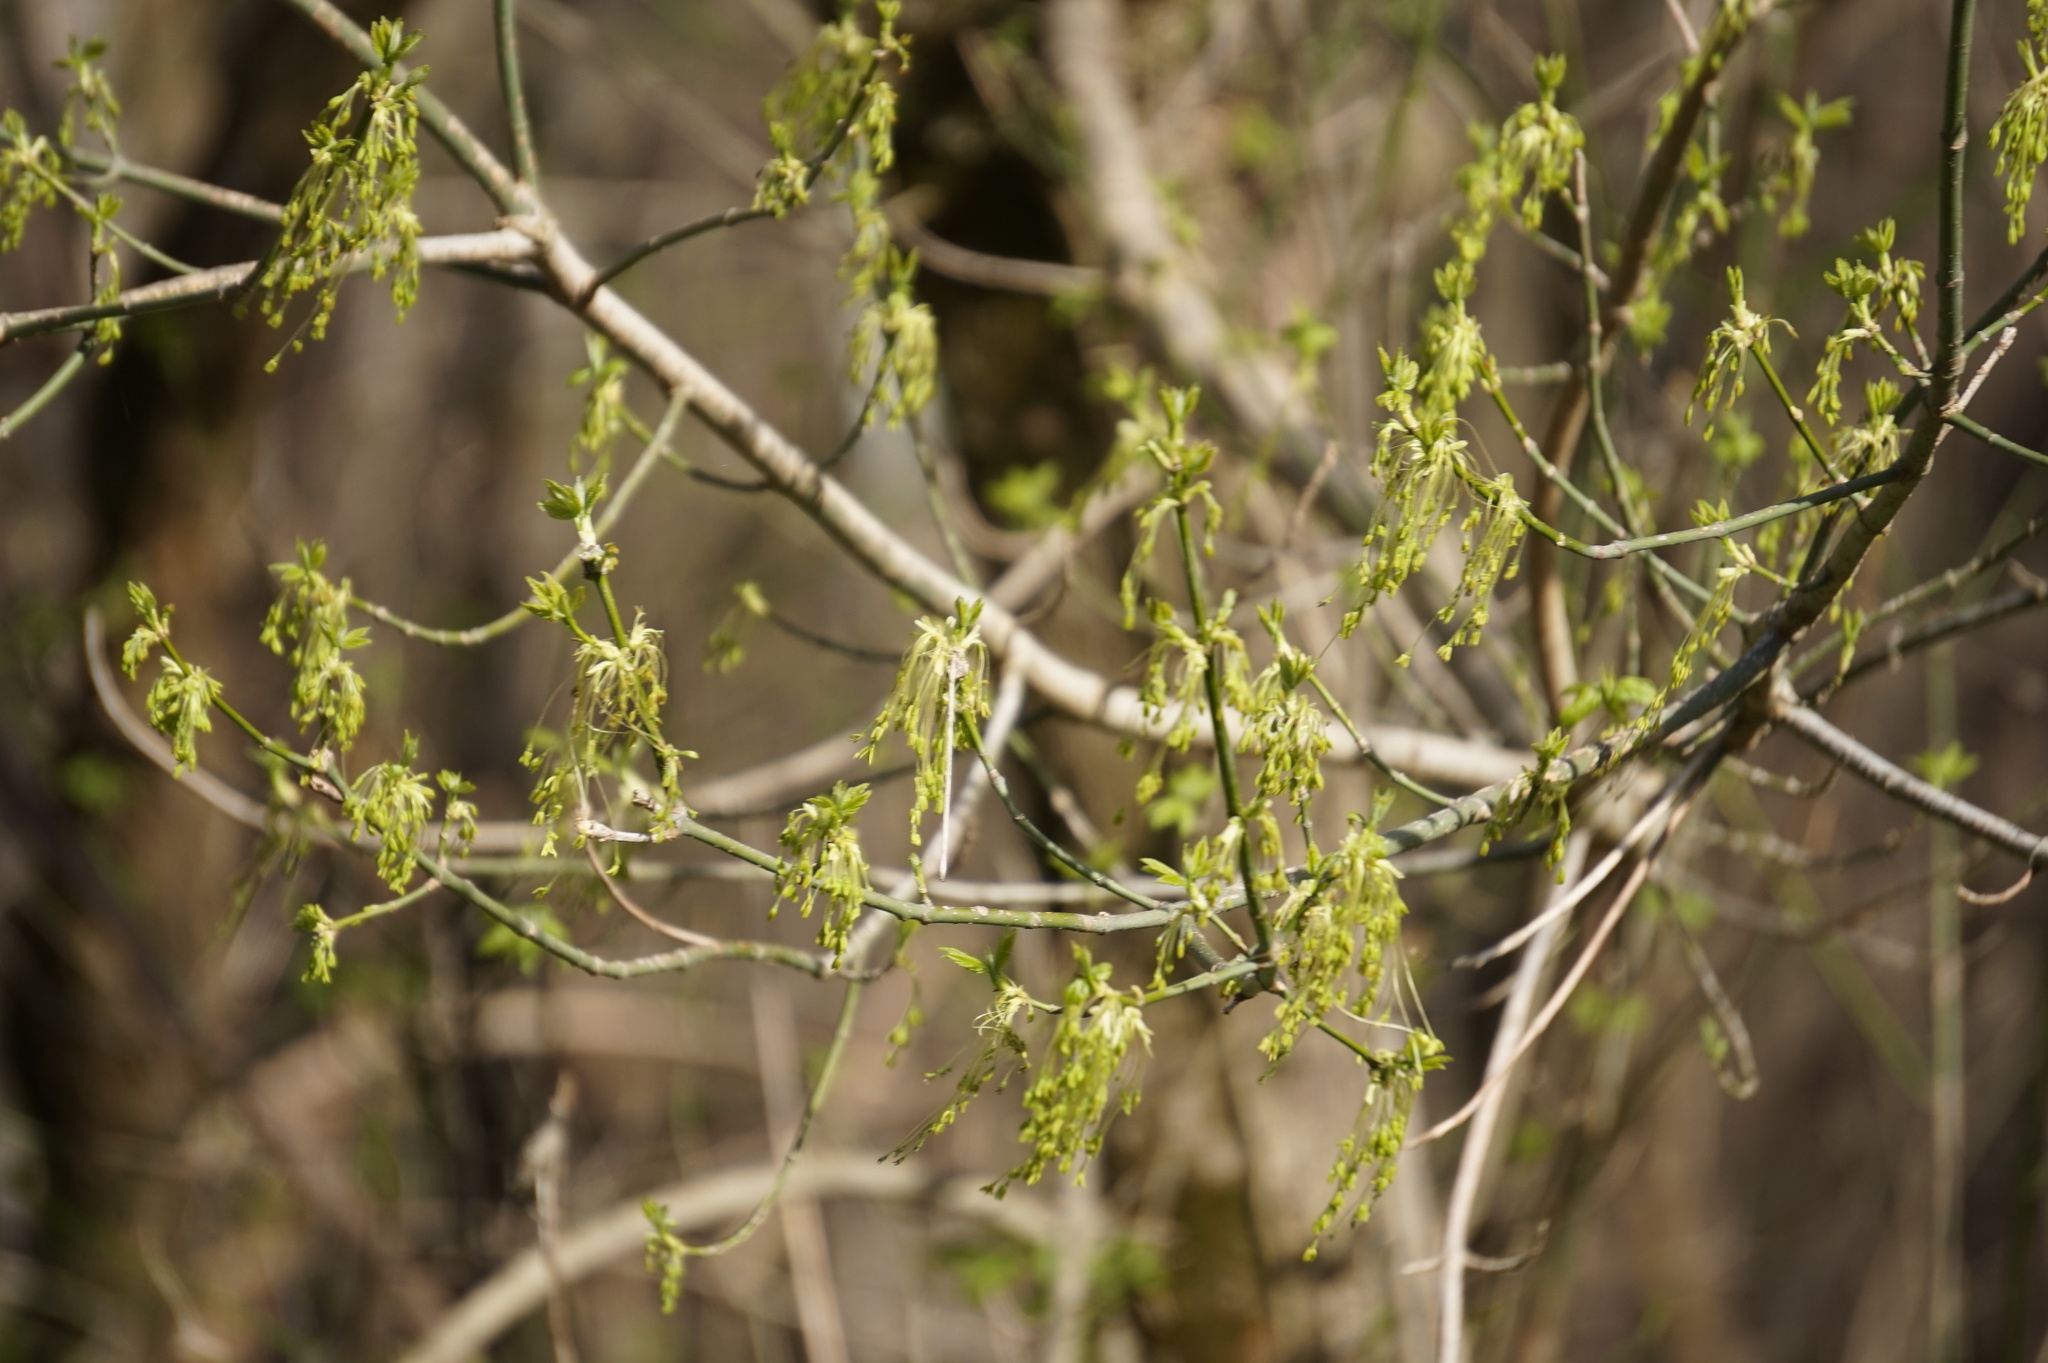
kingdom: Plantae
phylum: Tracheophyta
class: Magnoliopsida
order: Sapindales
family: Sapindaceae
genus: Acer
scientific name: Acer negundo
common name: Ashleaf maple
